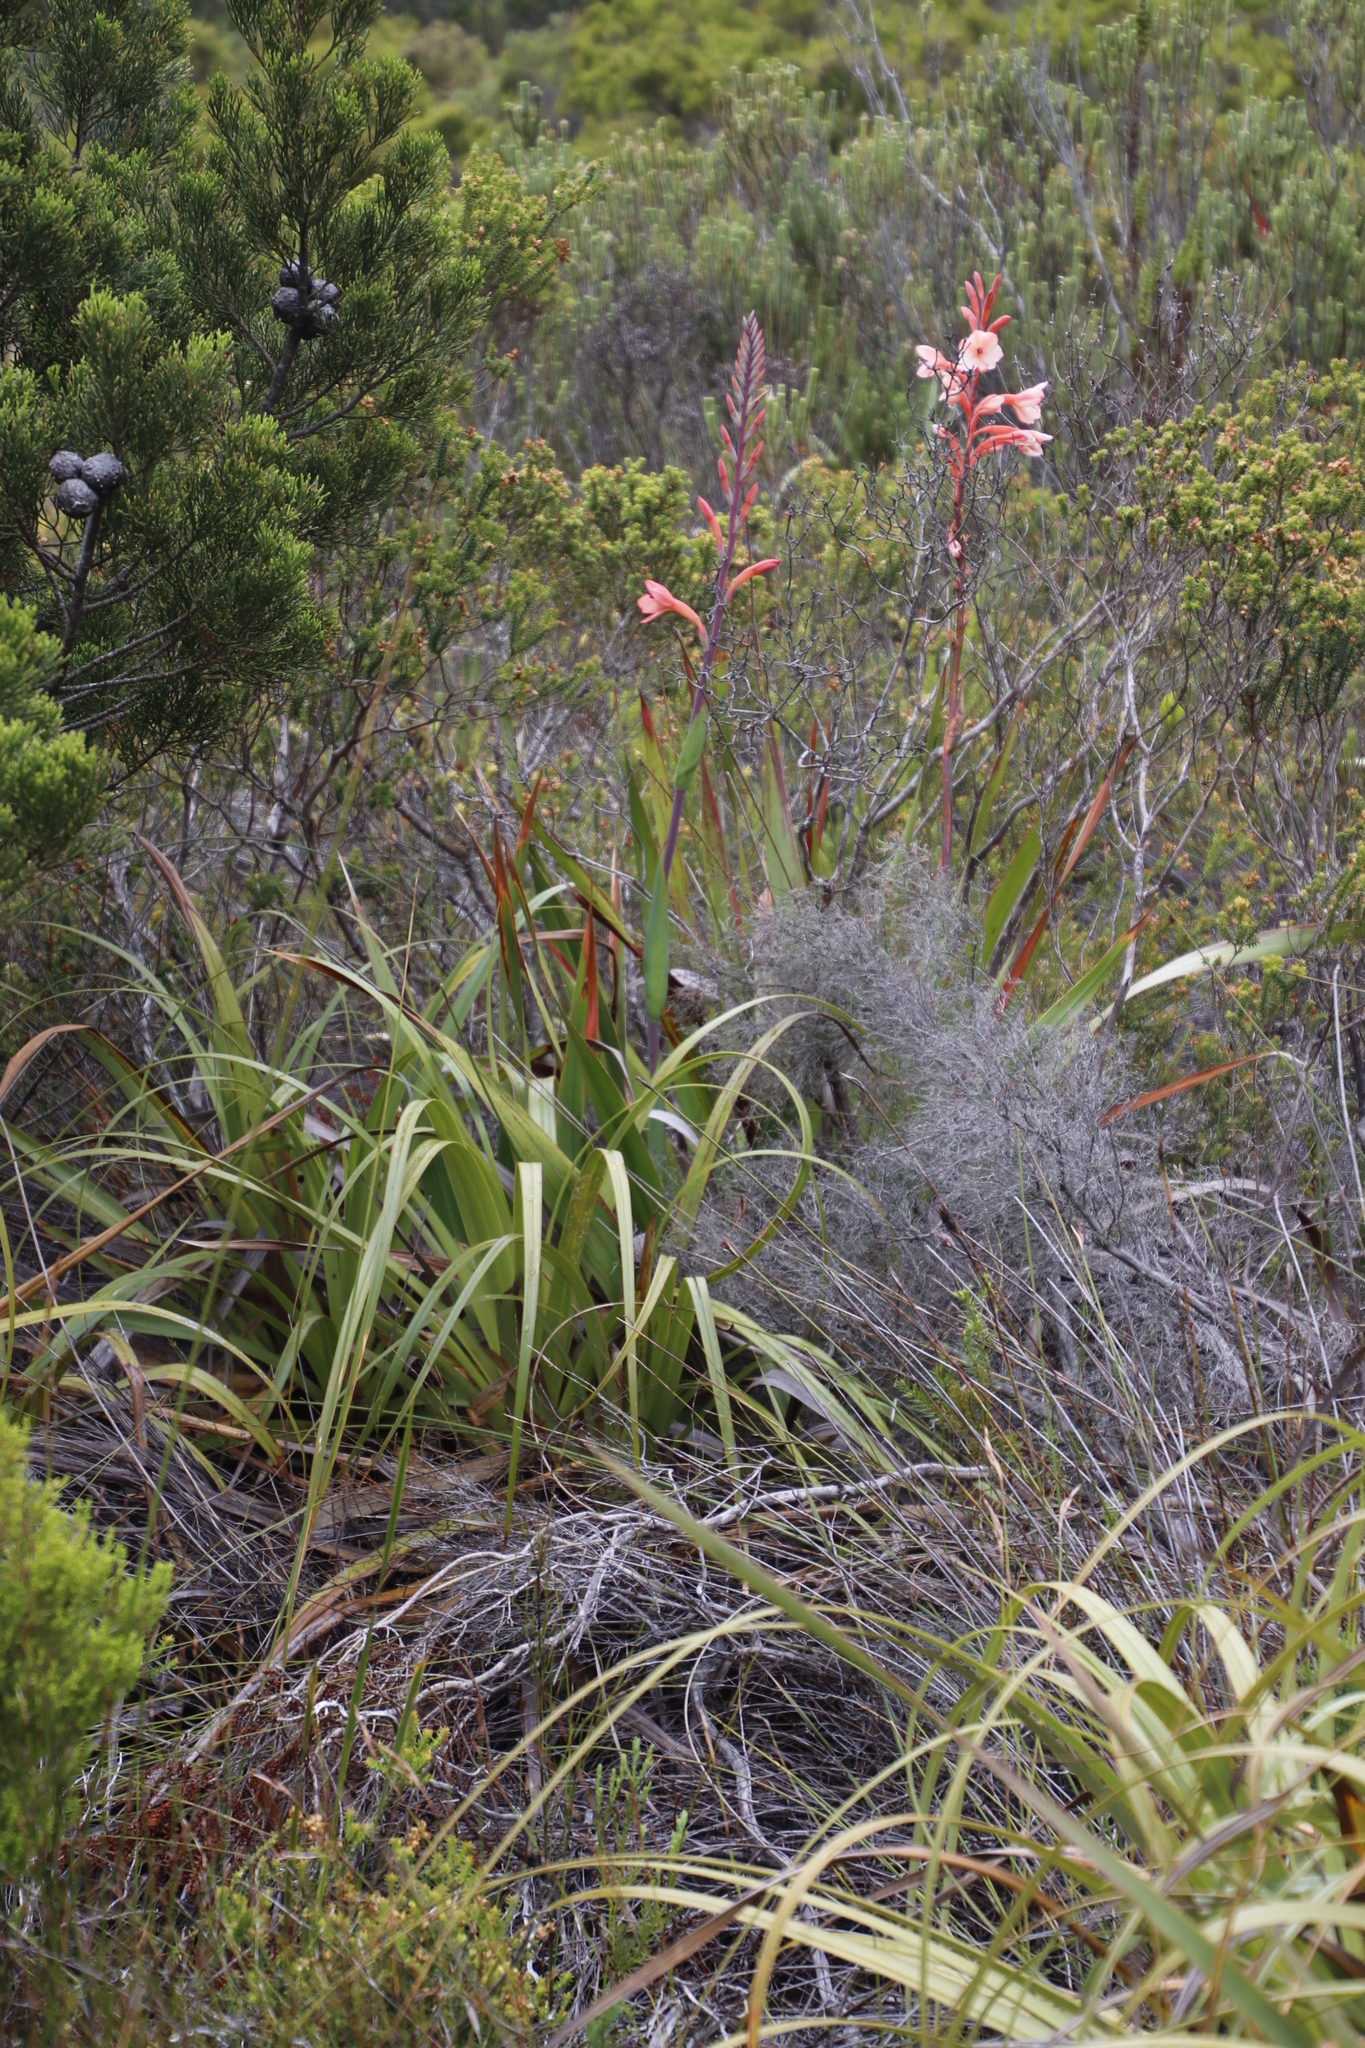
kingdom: Plantae
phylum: Tracheophyta
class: Liliopsida
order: Asparagales
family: Iridaceae
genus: Watsonia
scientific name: Watsonia tabularis
